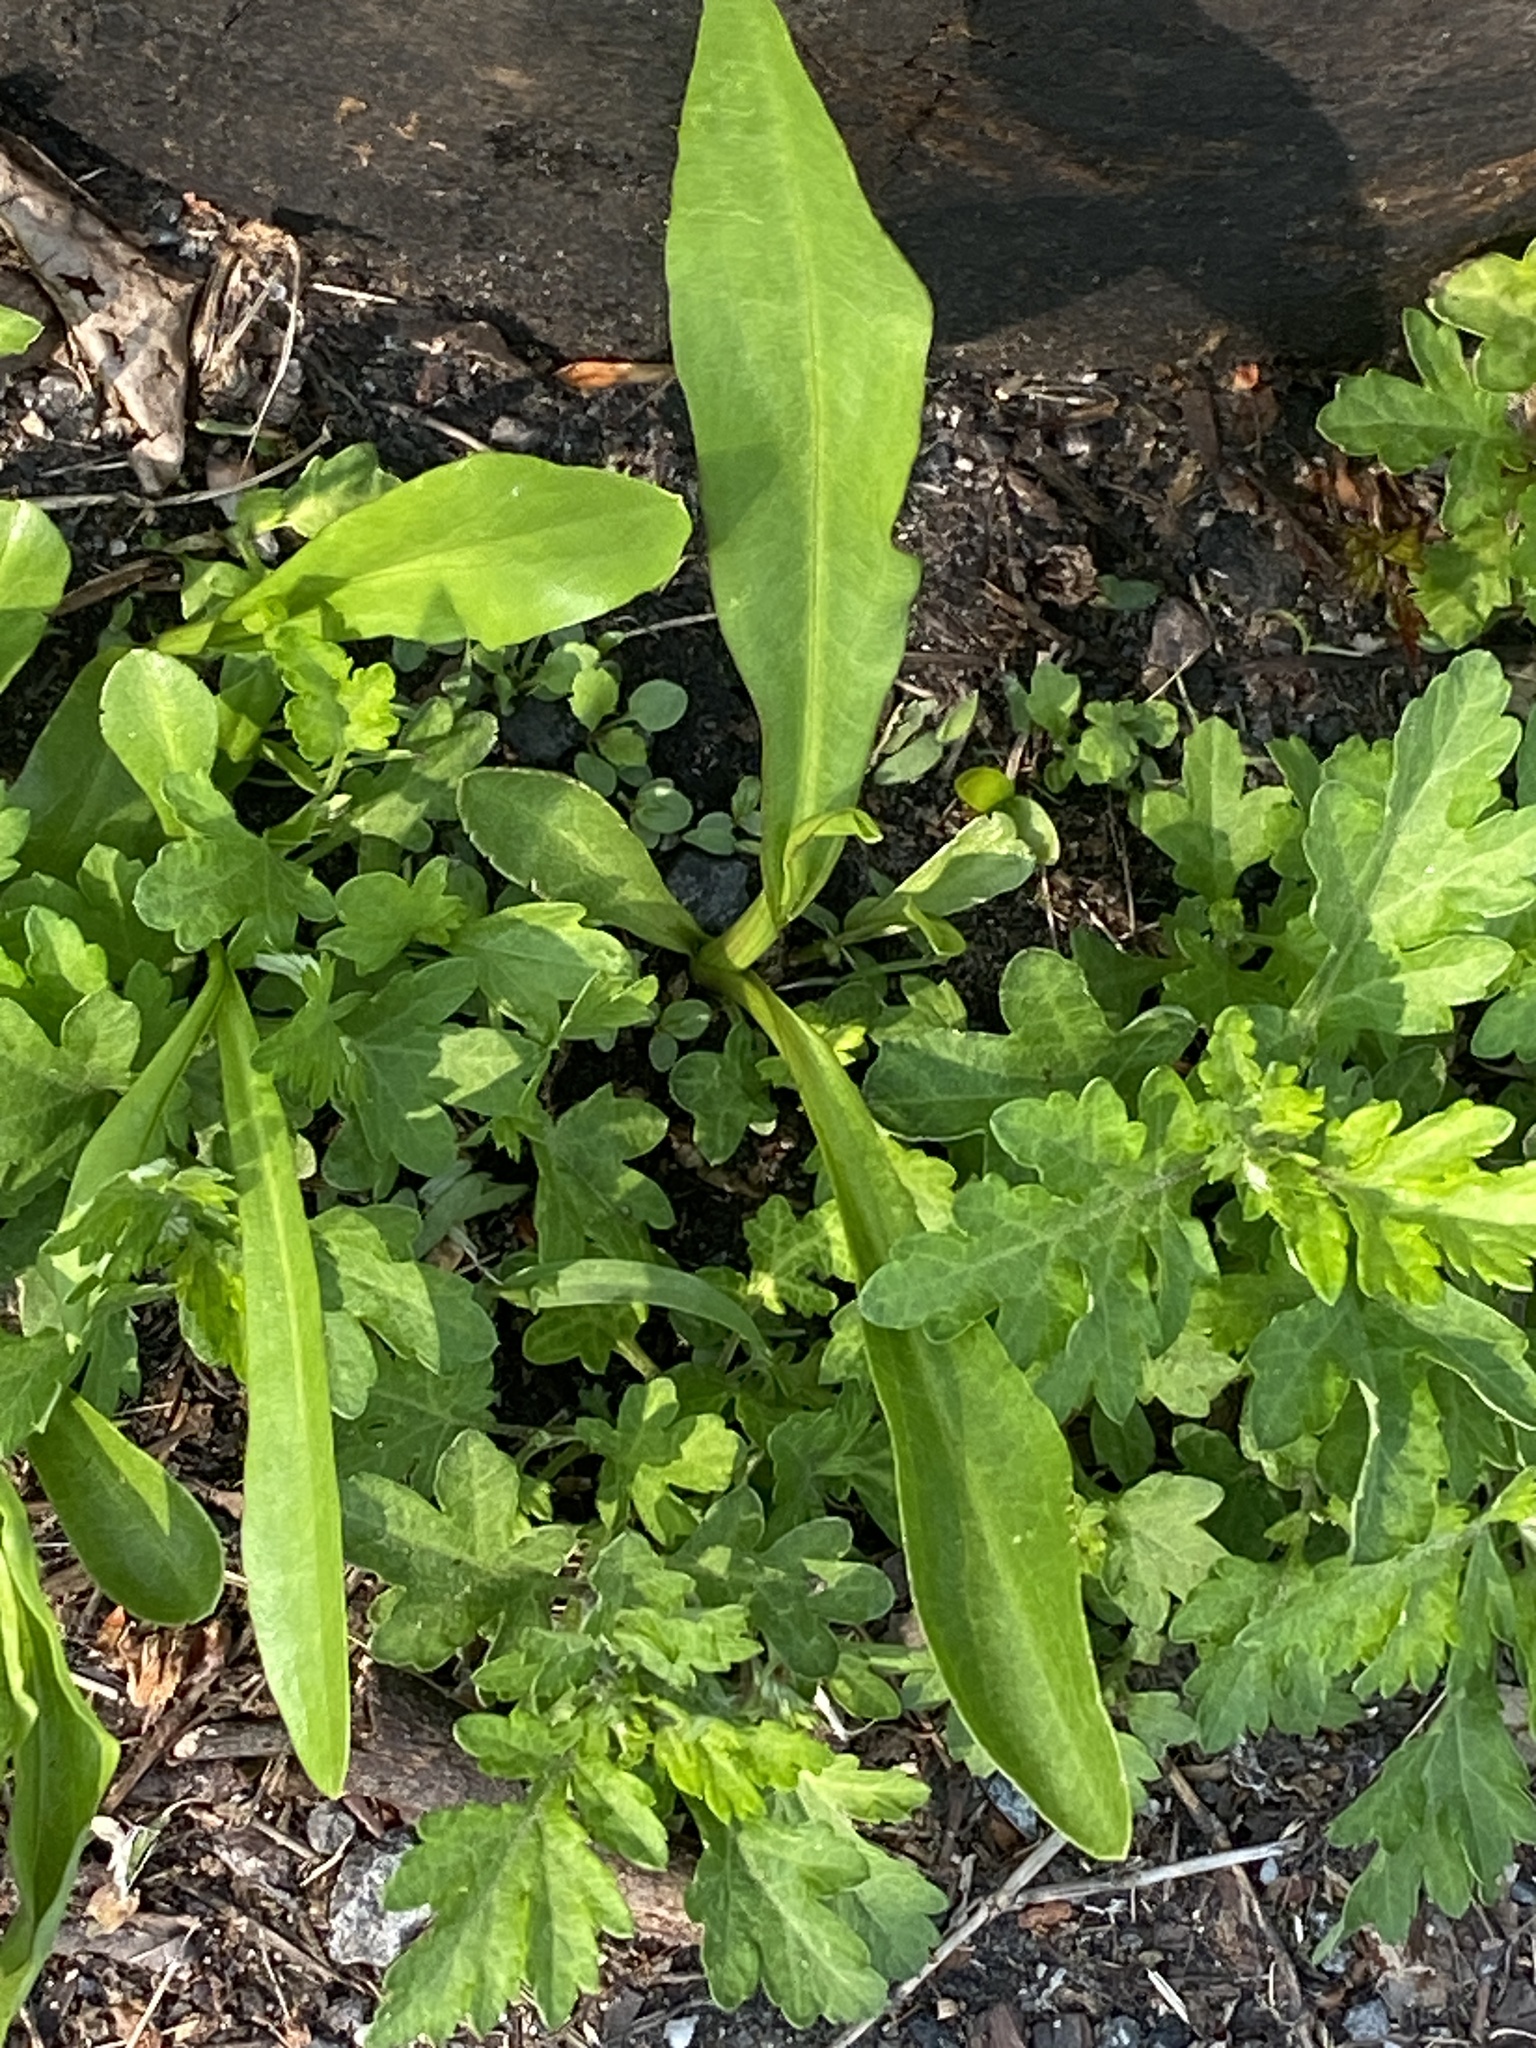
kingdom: Plantae
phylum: Tracheophyta
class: Magnoliopsida
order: Asterales
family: Asteraceae
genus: Solidago
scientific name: Solidago sempervirens
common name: Salt-marsh goldenrod
